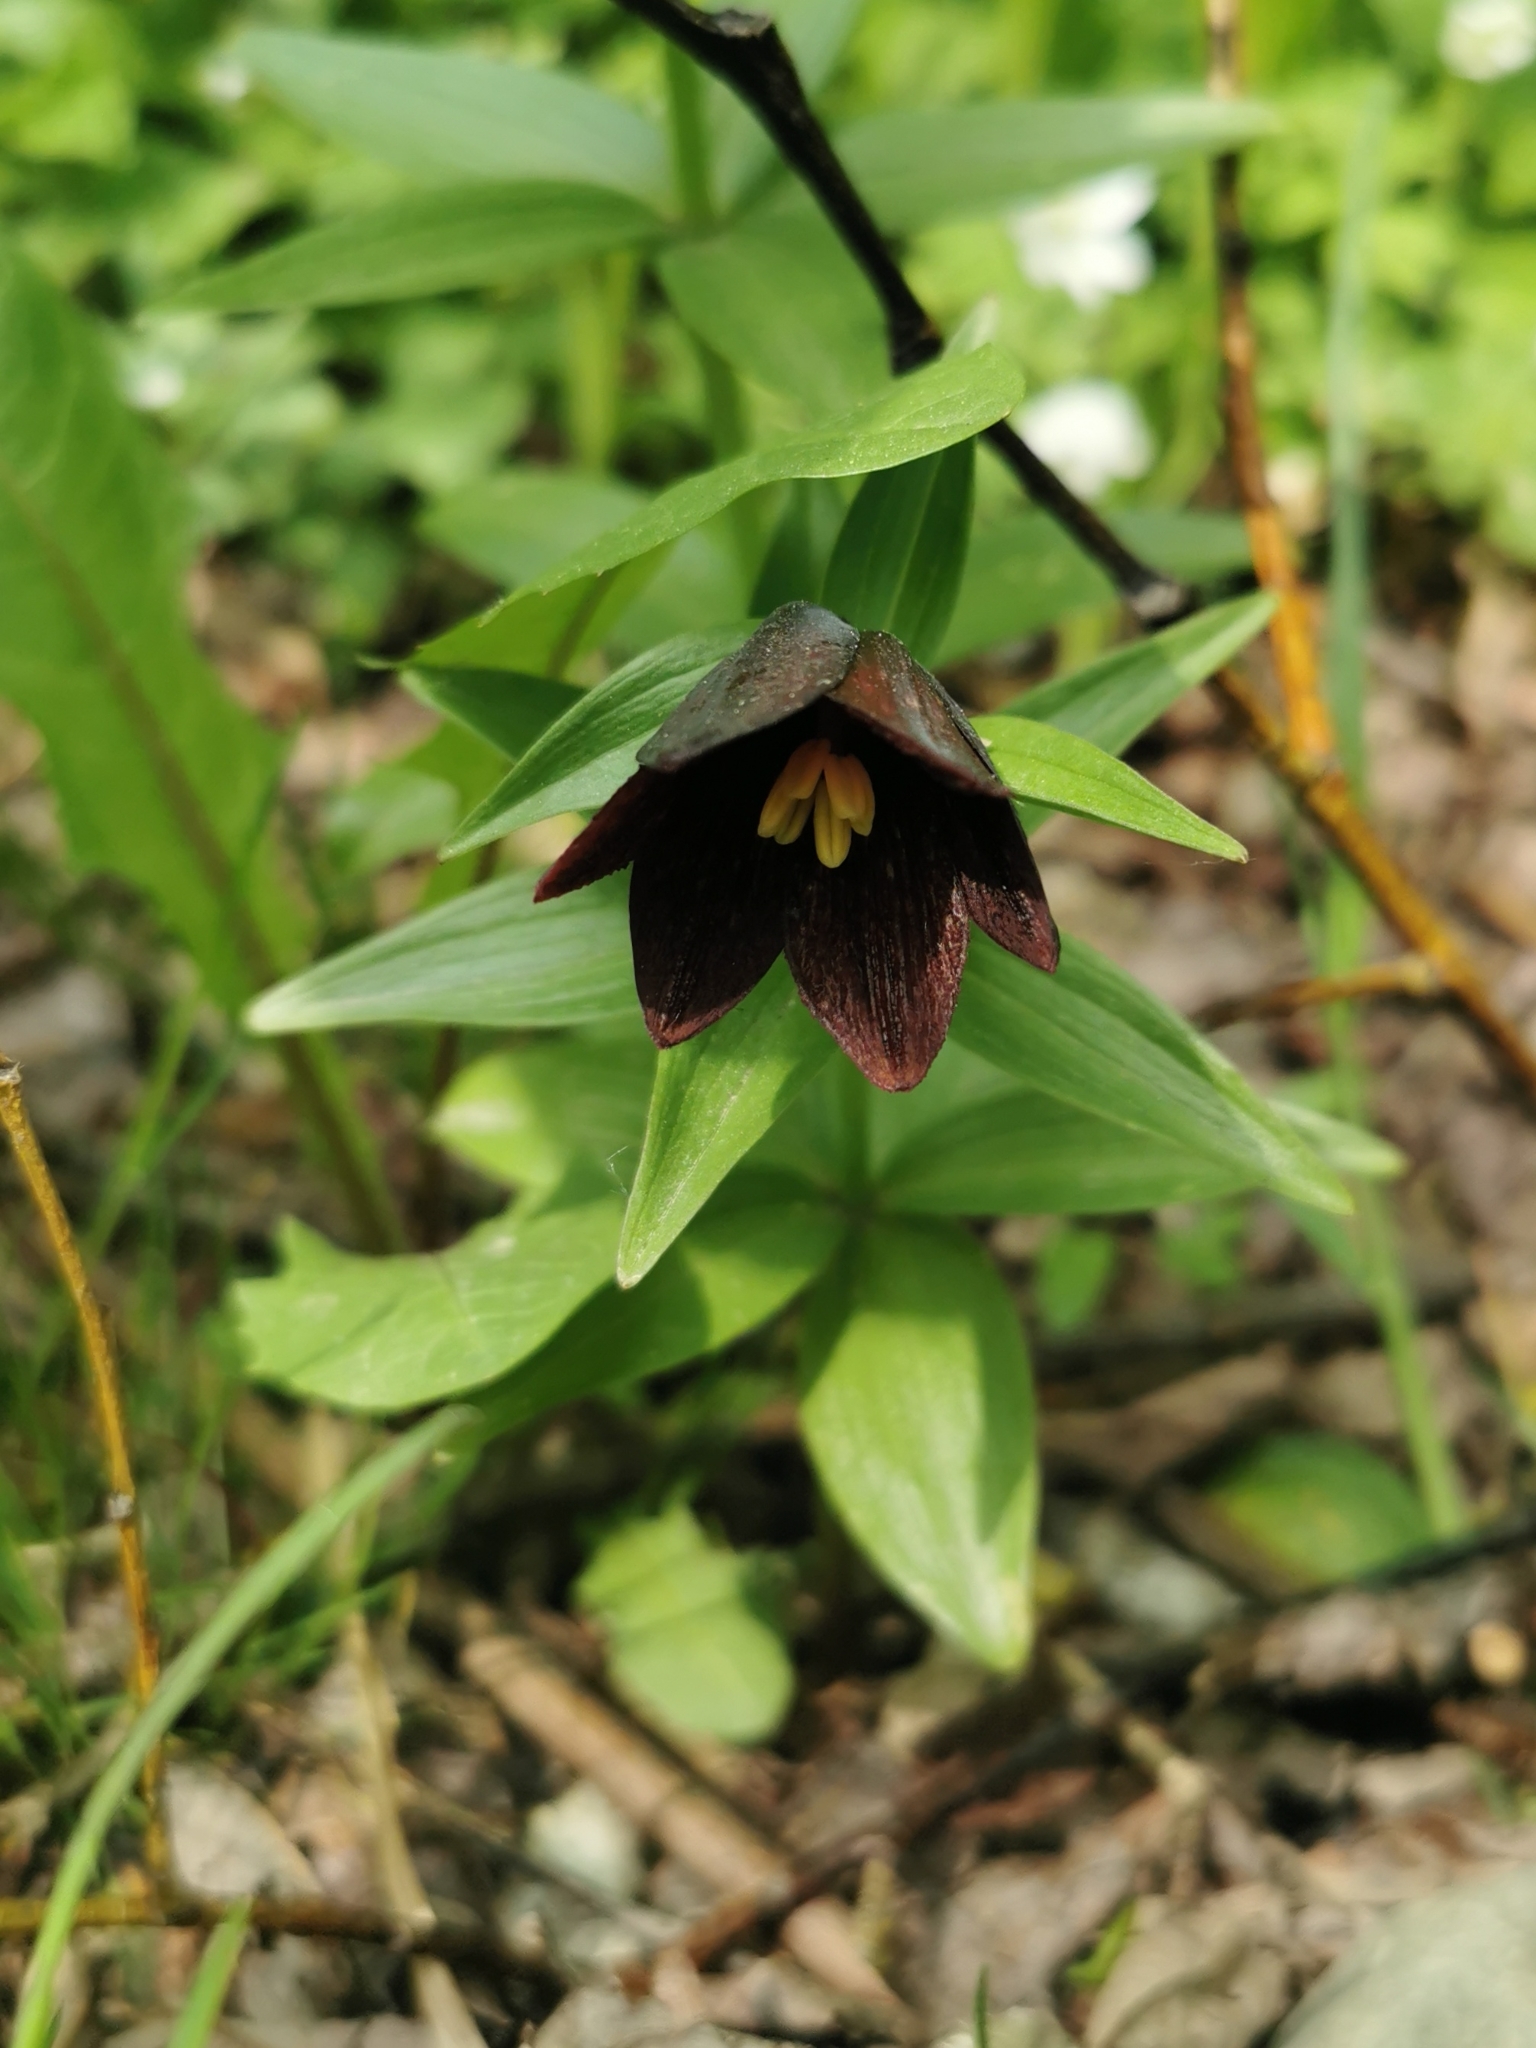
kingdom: Plantae
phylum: Tracheophyta
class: Liliopsida
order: Liliales
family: Liliaceae
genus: Fritillaria
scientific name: Fritillaria camschatcensis
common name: Kamchatka fritillary
